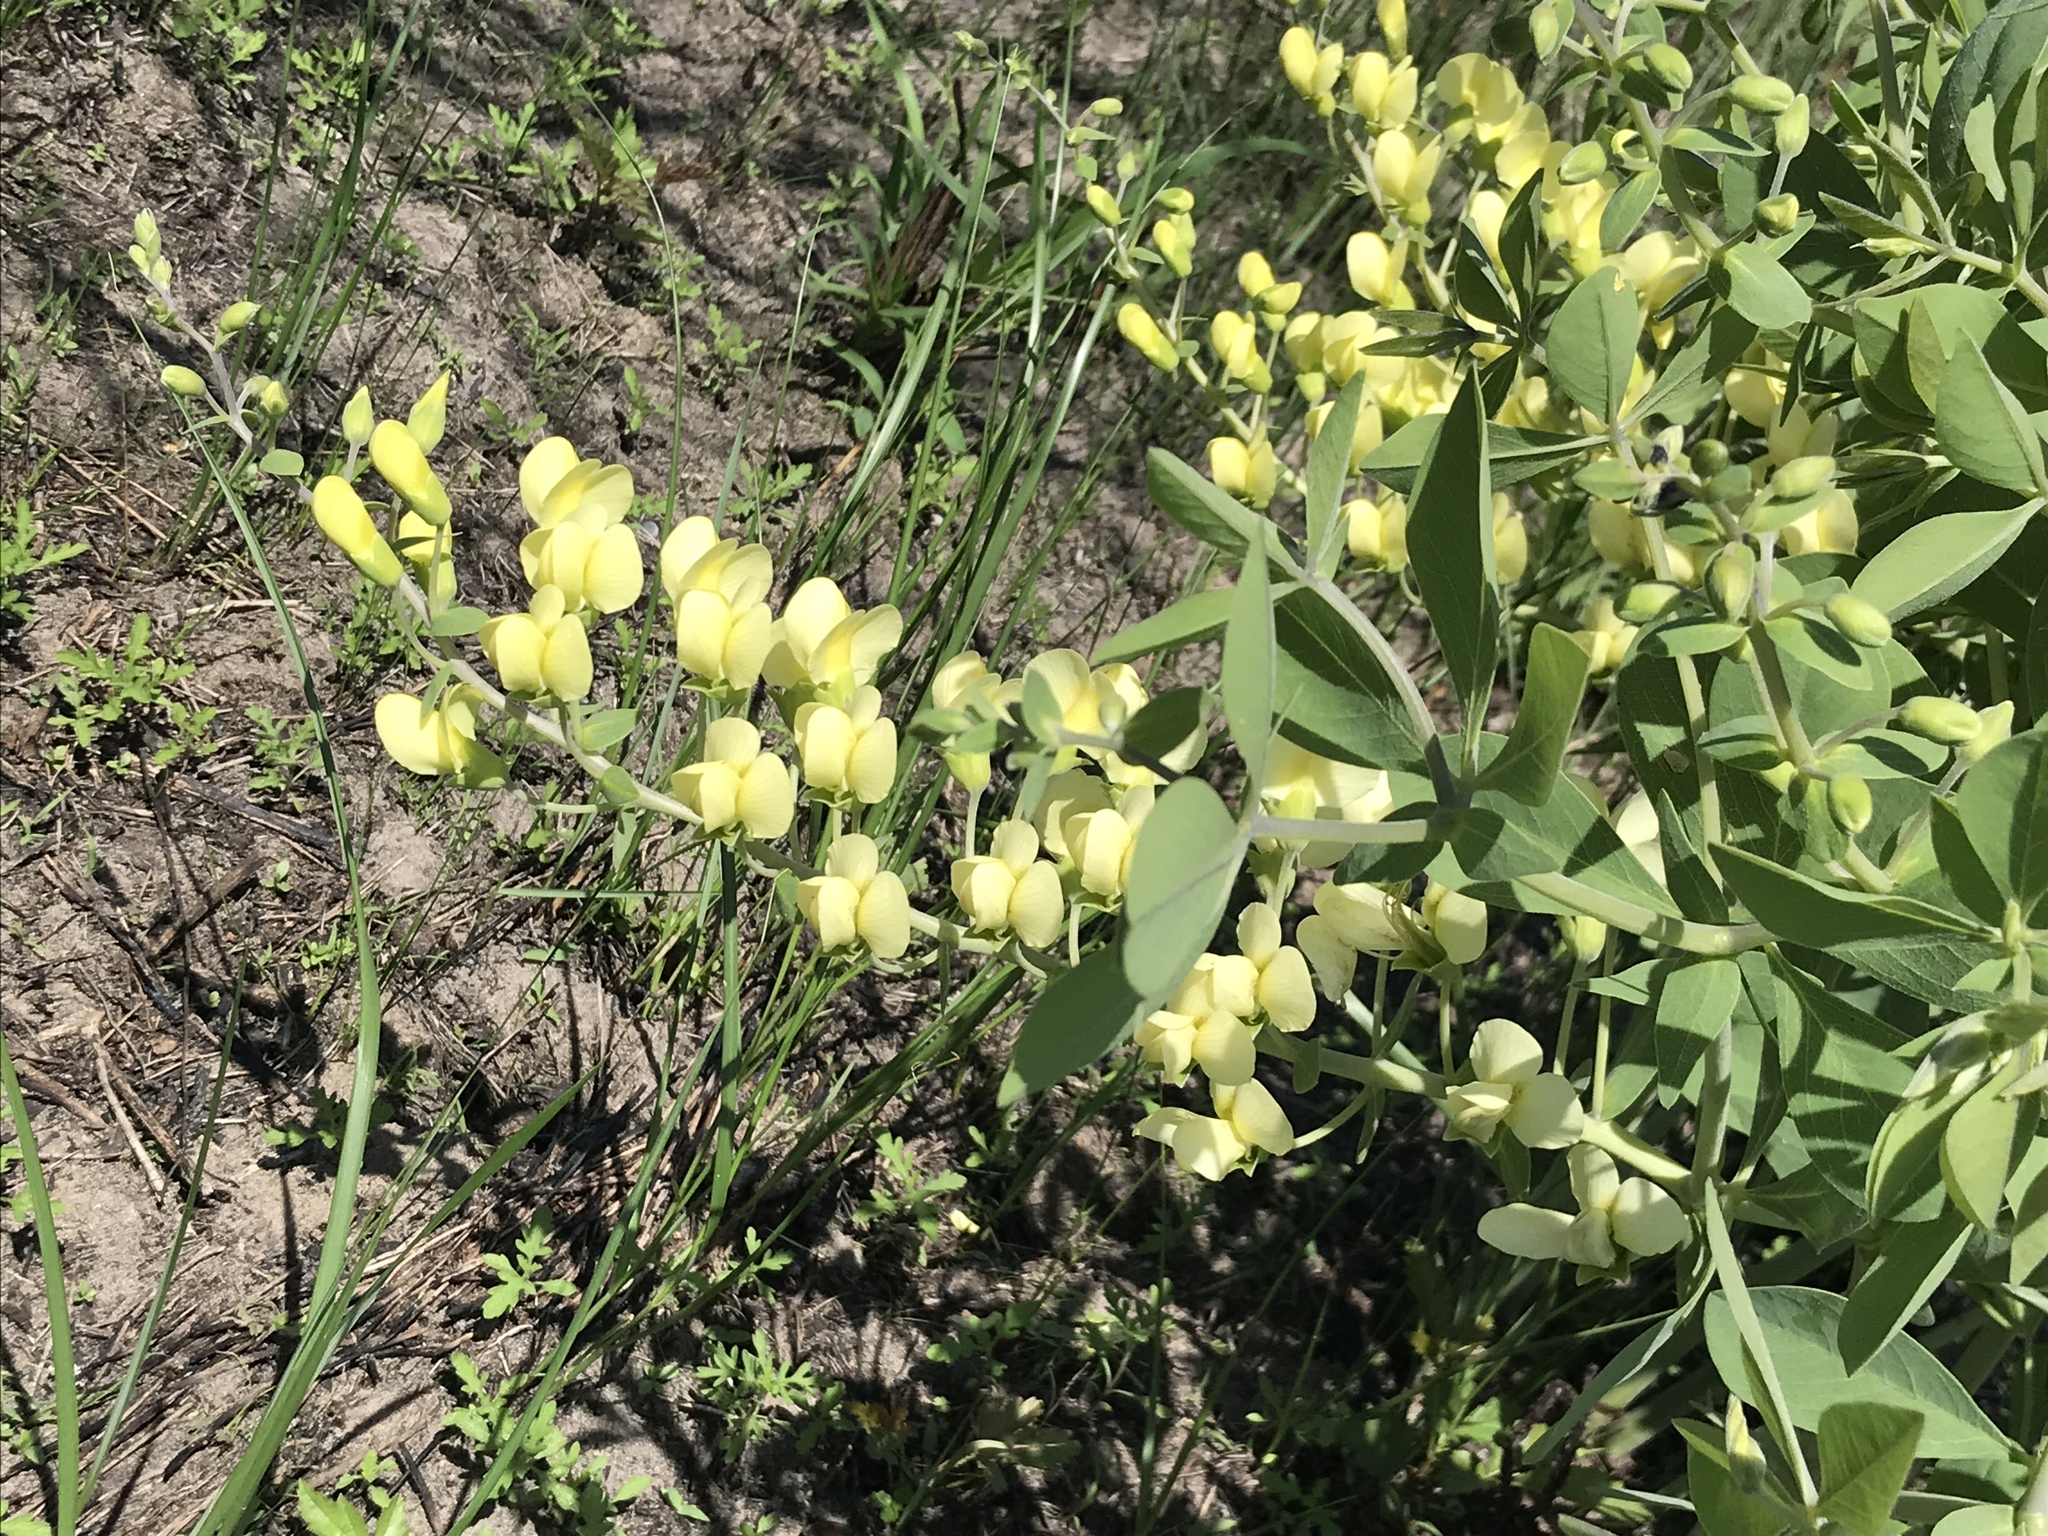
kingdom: Plantae
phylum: Tracheophyta
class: Magnoliopsida
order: Fabales
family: Fabaceae
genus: Baptisia
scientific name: Baptisia bracteata
